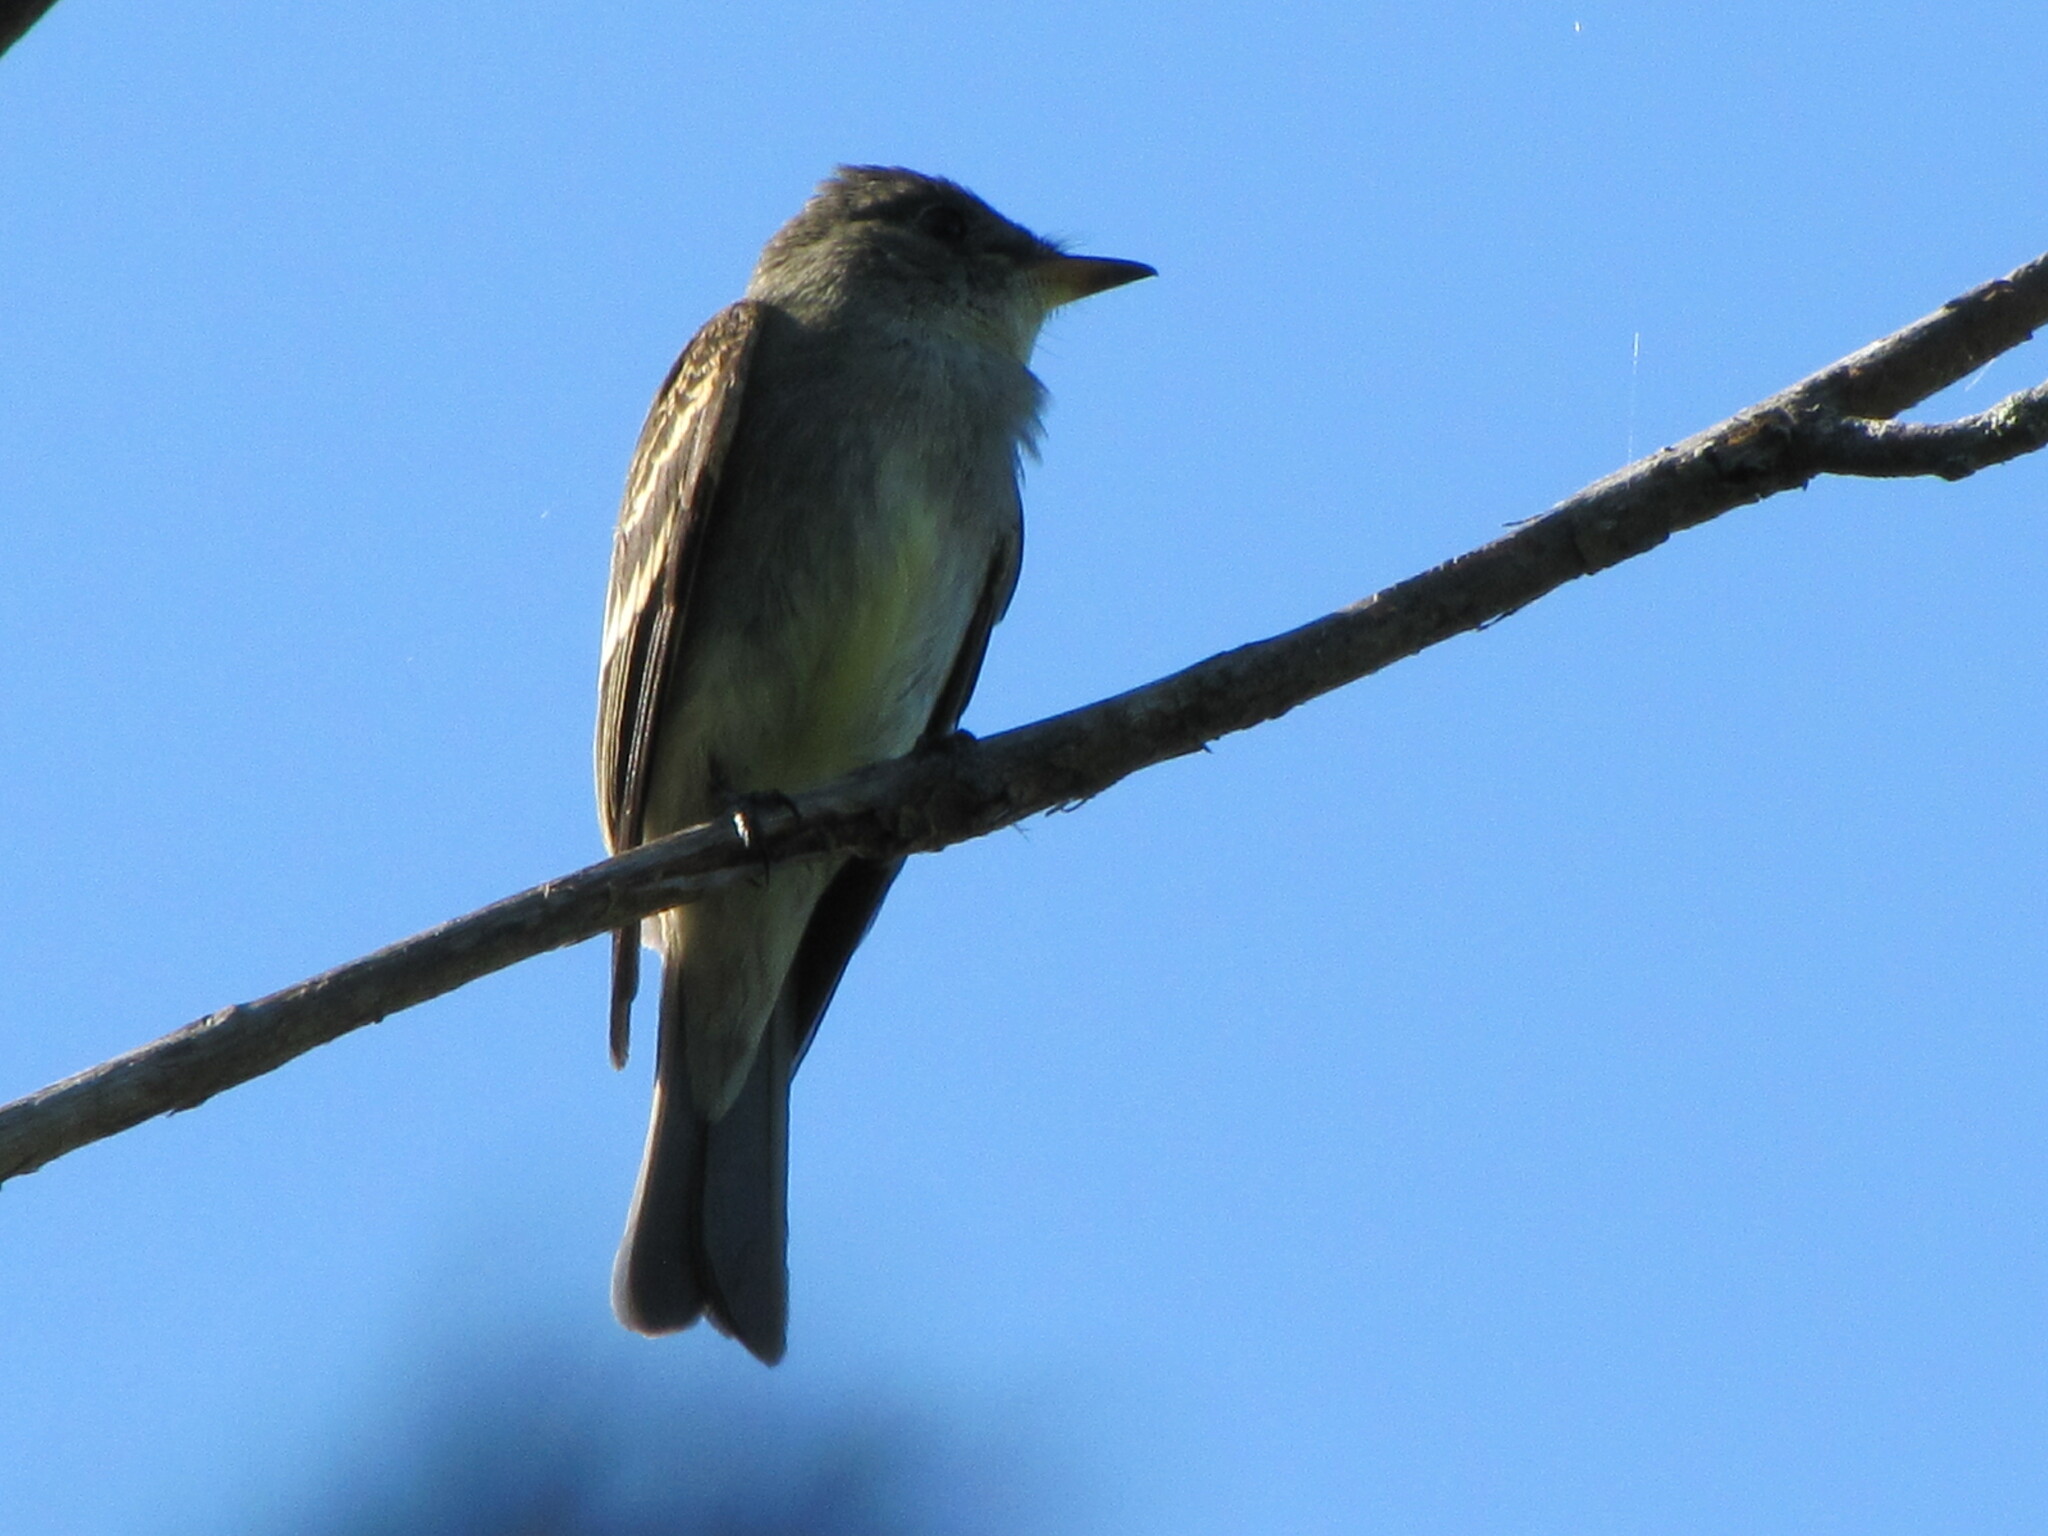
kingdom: Animalia
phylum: Chordata
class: Aves
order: Passeriformes
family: Tyrannidae
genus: Contopus
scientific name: Contopus virens
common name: Eastern wood-pewee
